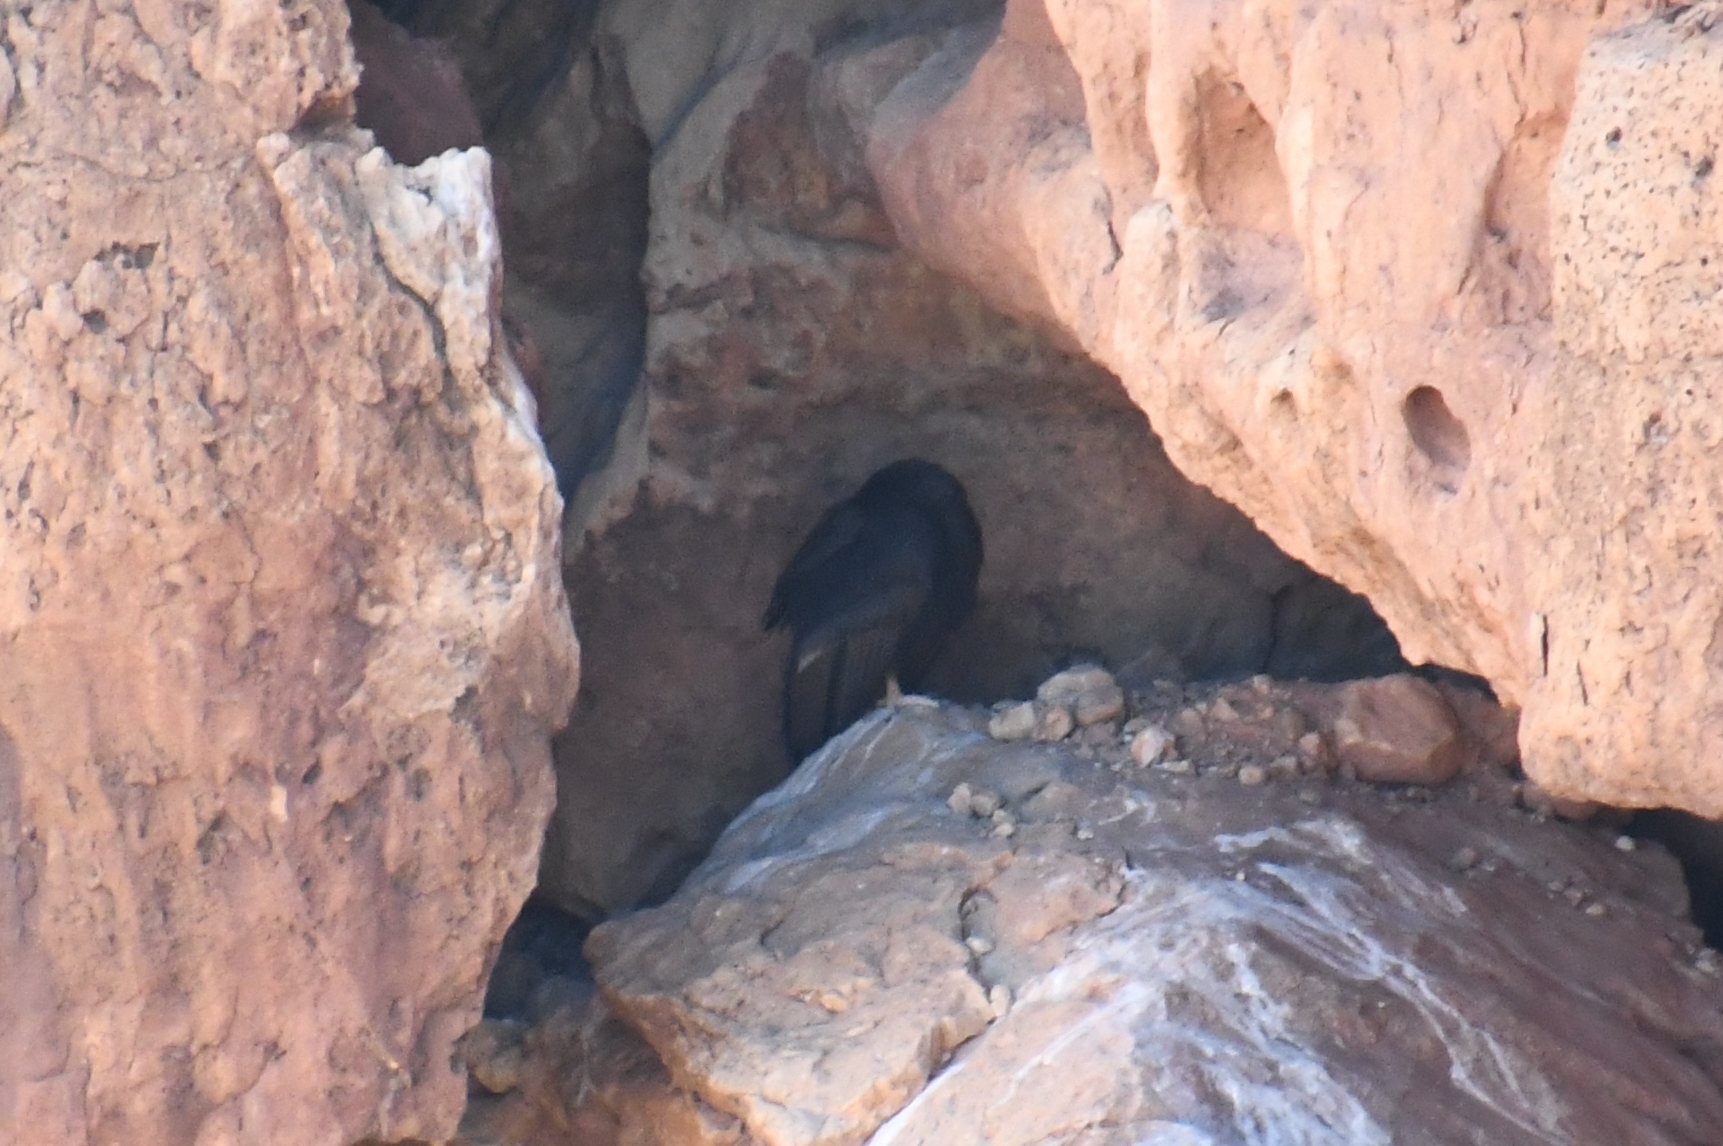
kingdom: Animalia
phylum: Chordata
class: Aves
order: Accipitriformes
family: Cathartidae
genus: Gymnogyps
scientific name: Gymnogyps californianus
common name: California condor
